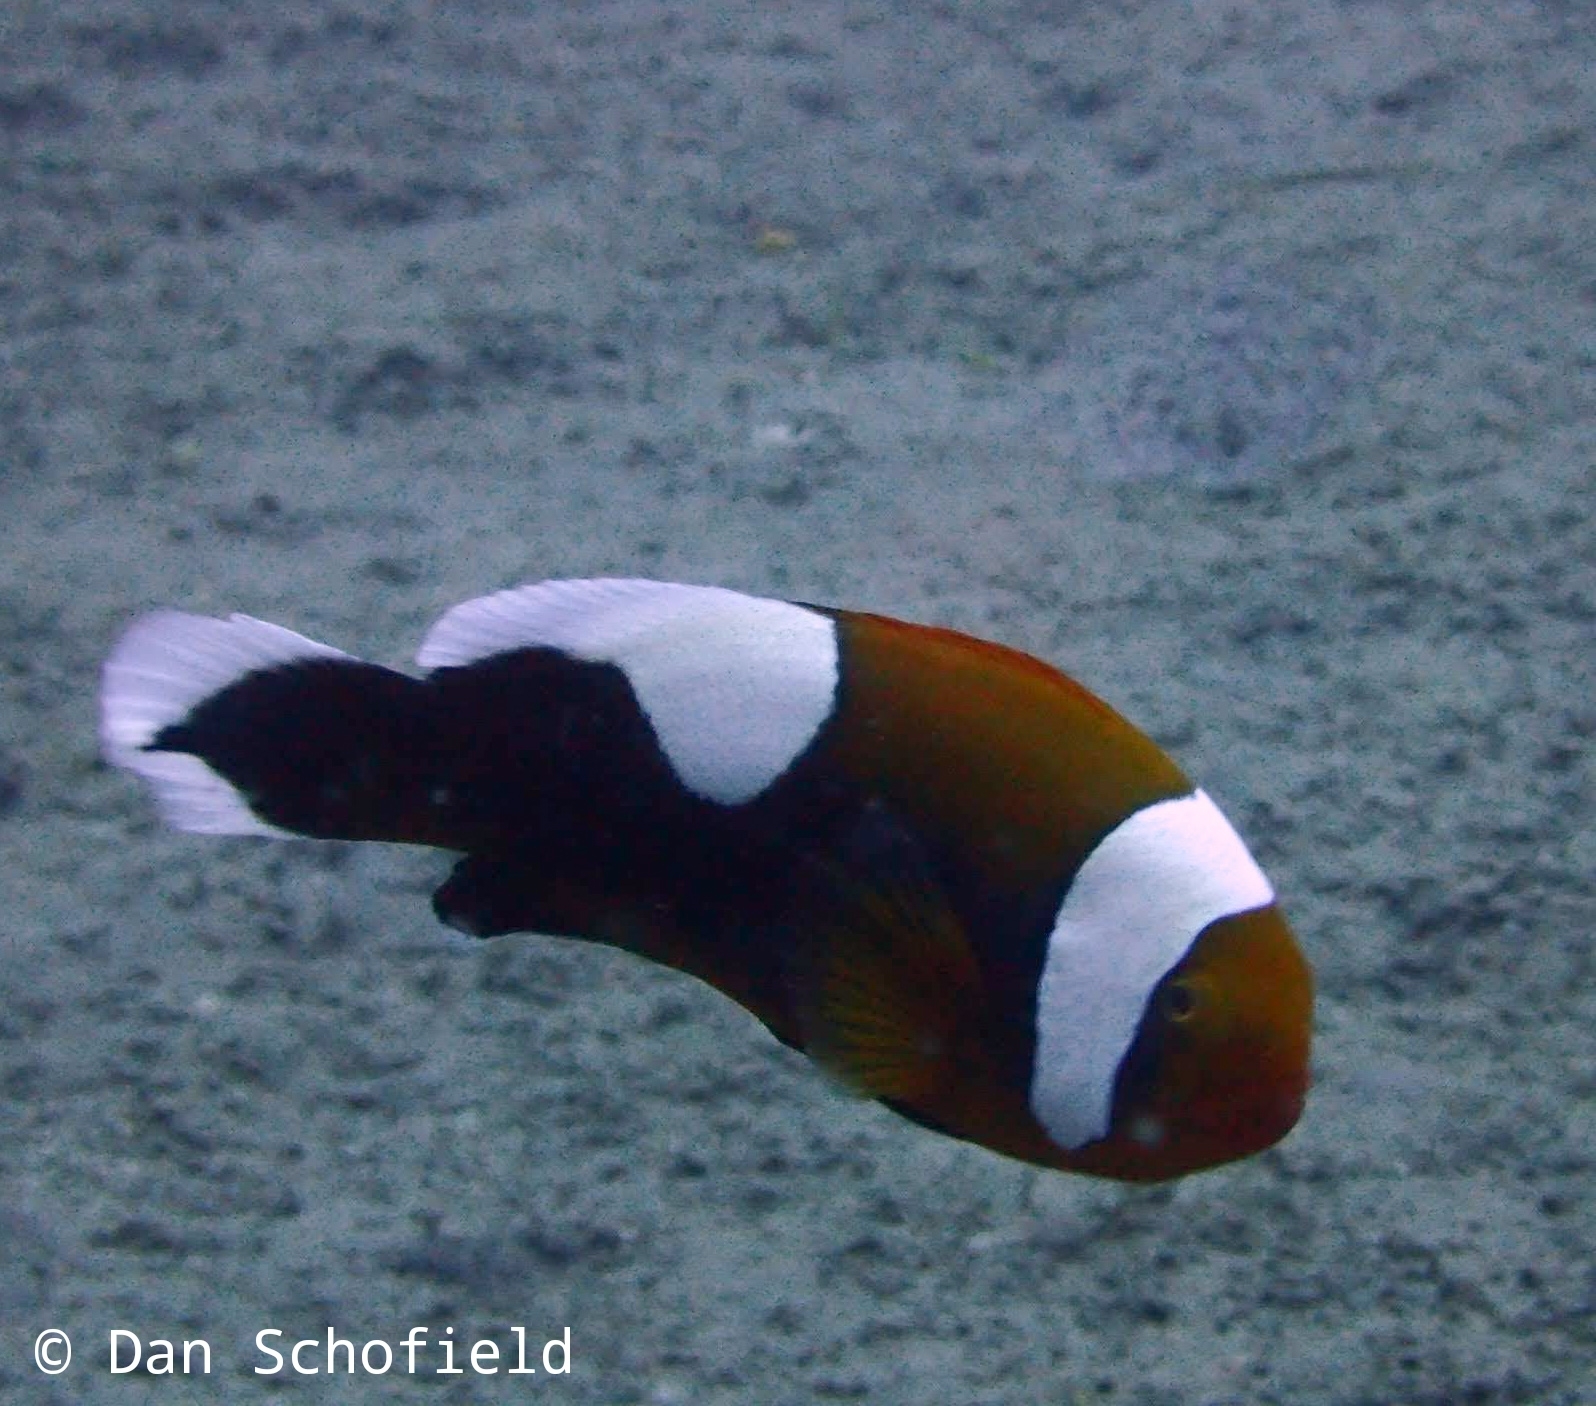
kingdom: Animalia
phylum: Chordata
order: Perciformes
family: Pomacentridae
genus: Amphiprion
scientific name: Amphiprion polymnus
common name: Saddleback anemonefish
